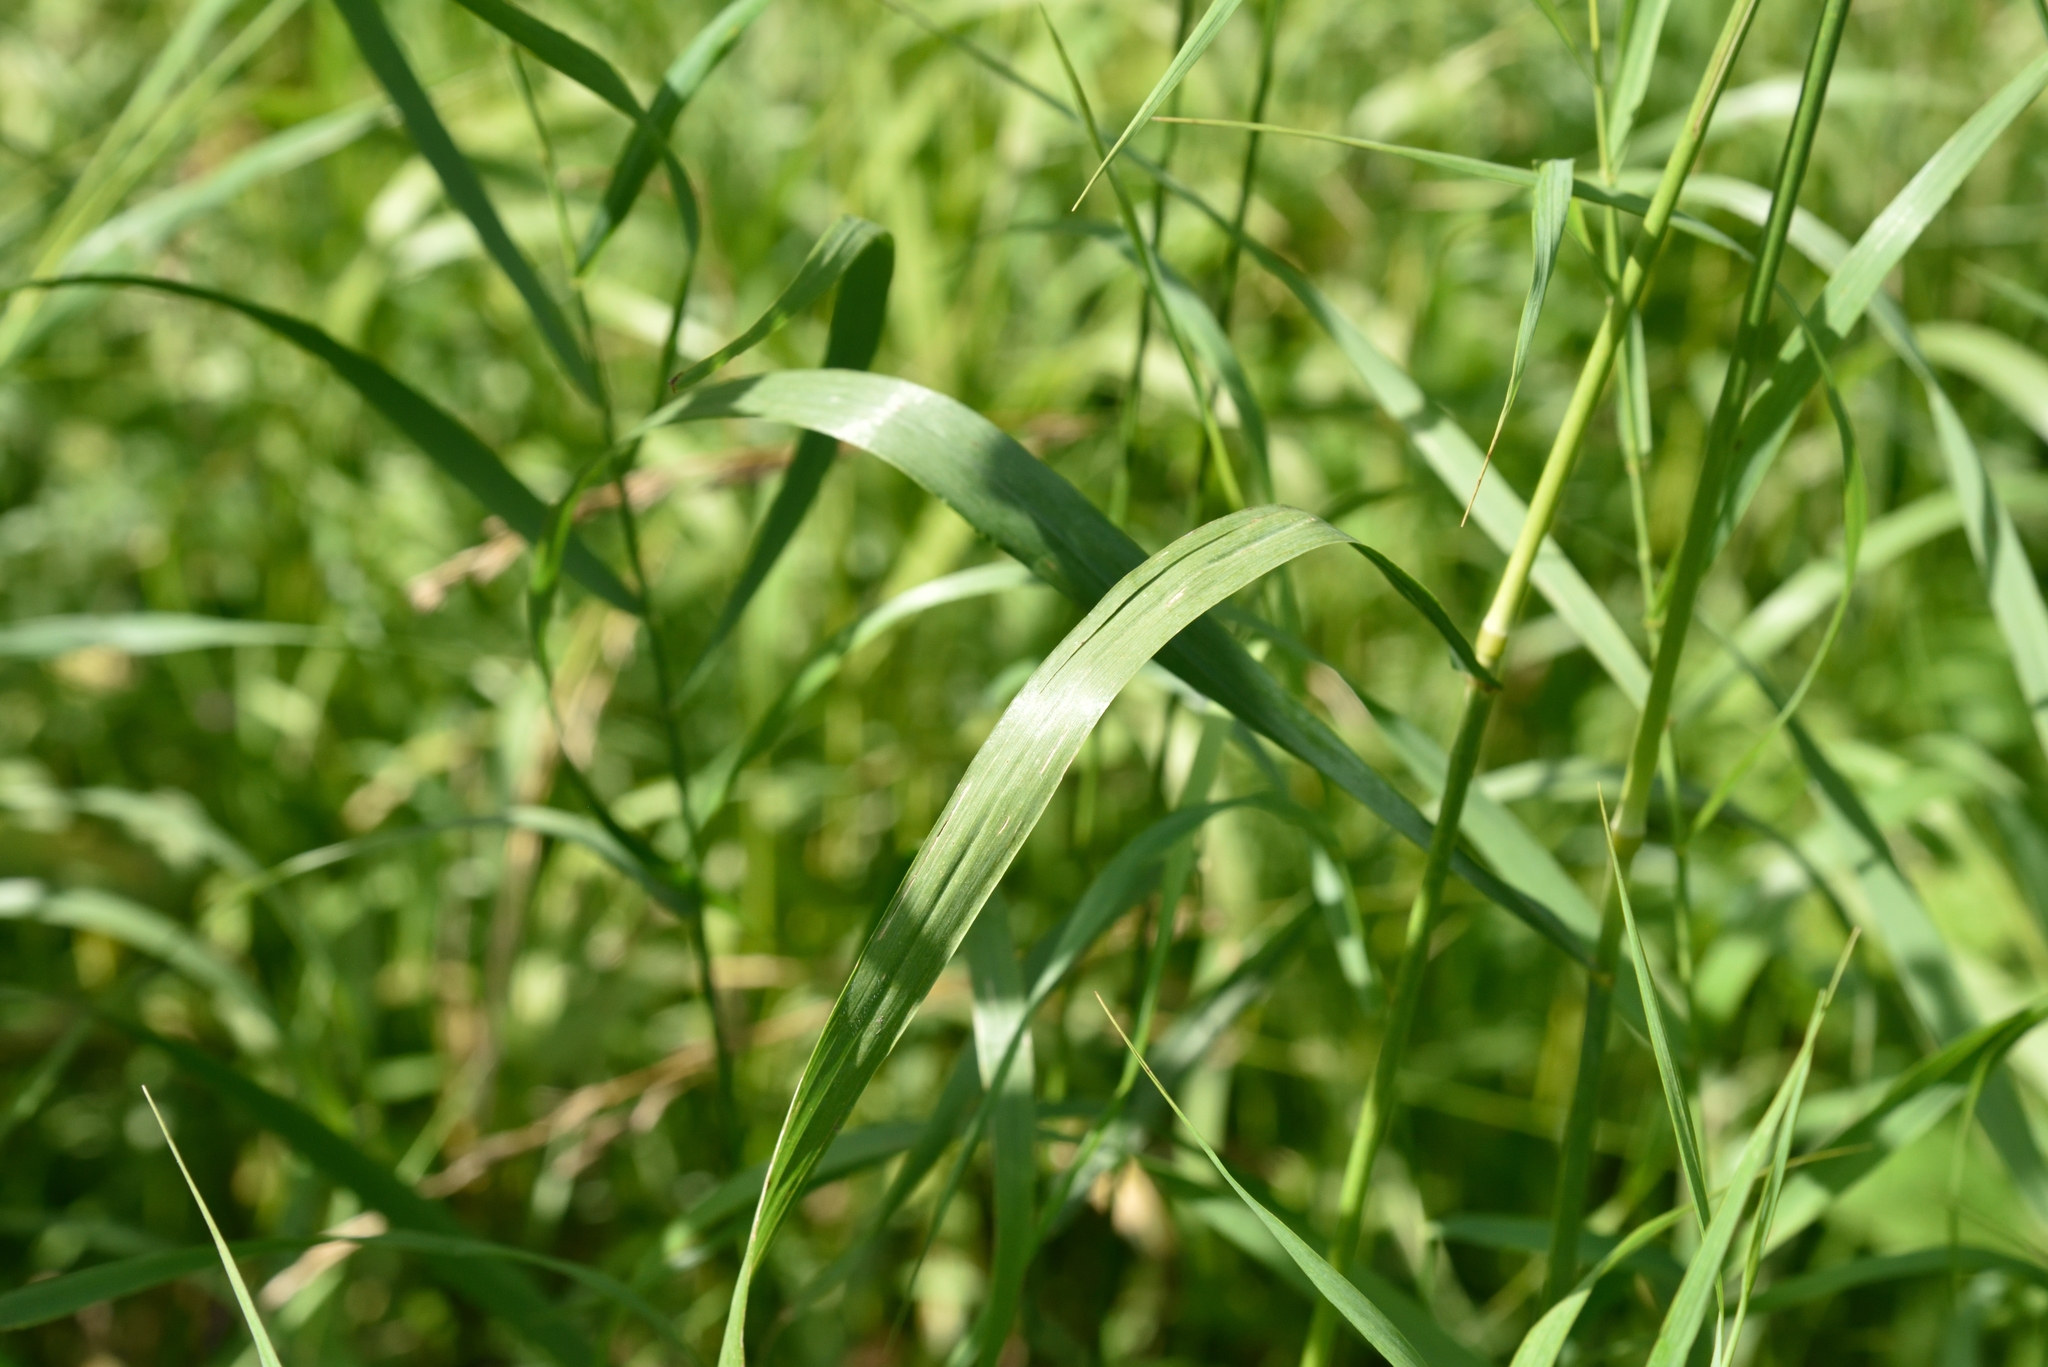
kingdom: Plantae
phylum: Tracheophyta
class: Liliopsida
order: Poales
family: Poaceae
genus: Bromus
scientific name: Bromus inermis
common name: Smooth brome
